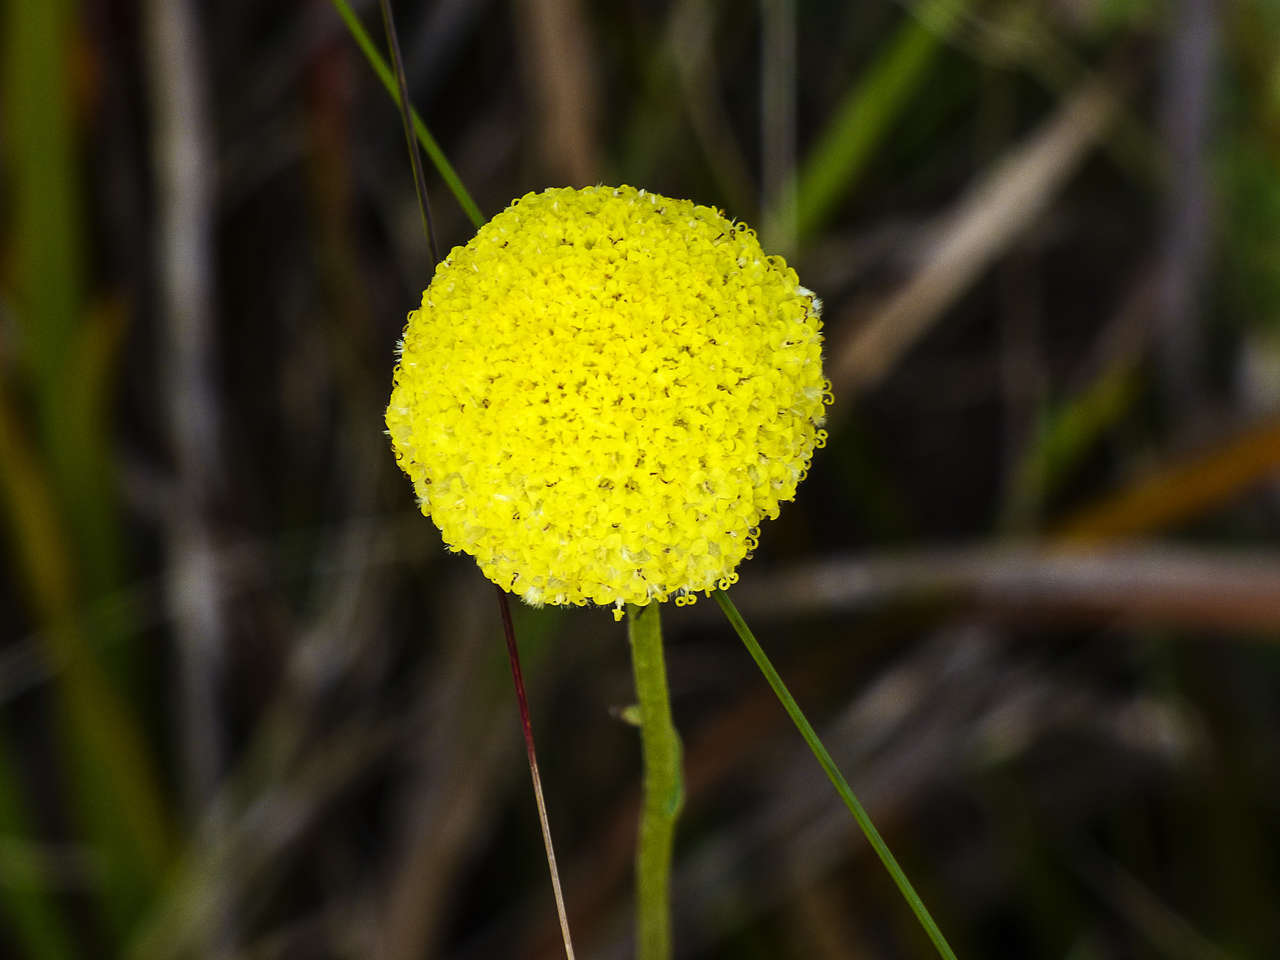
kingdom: Plantae
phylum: Tracheophyta
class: Magnoliopsida
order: Asterales
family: Asteraceae
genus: Craspedia
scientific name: Craspedia variabilis
